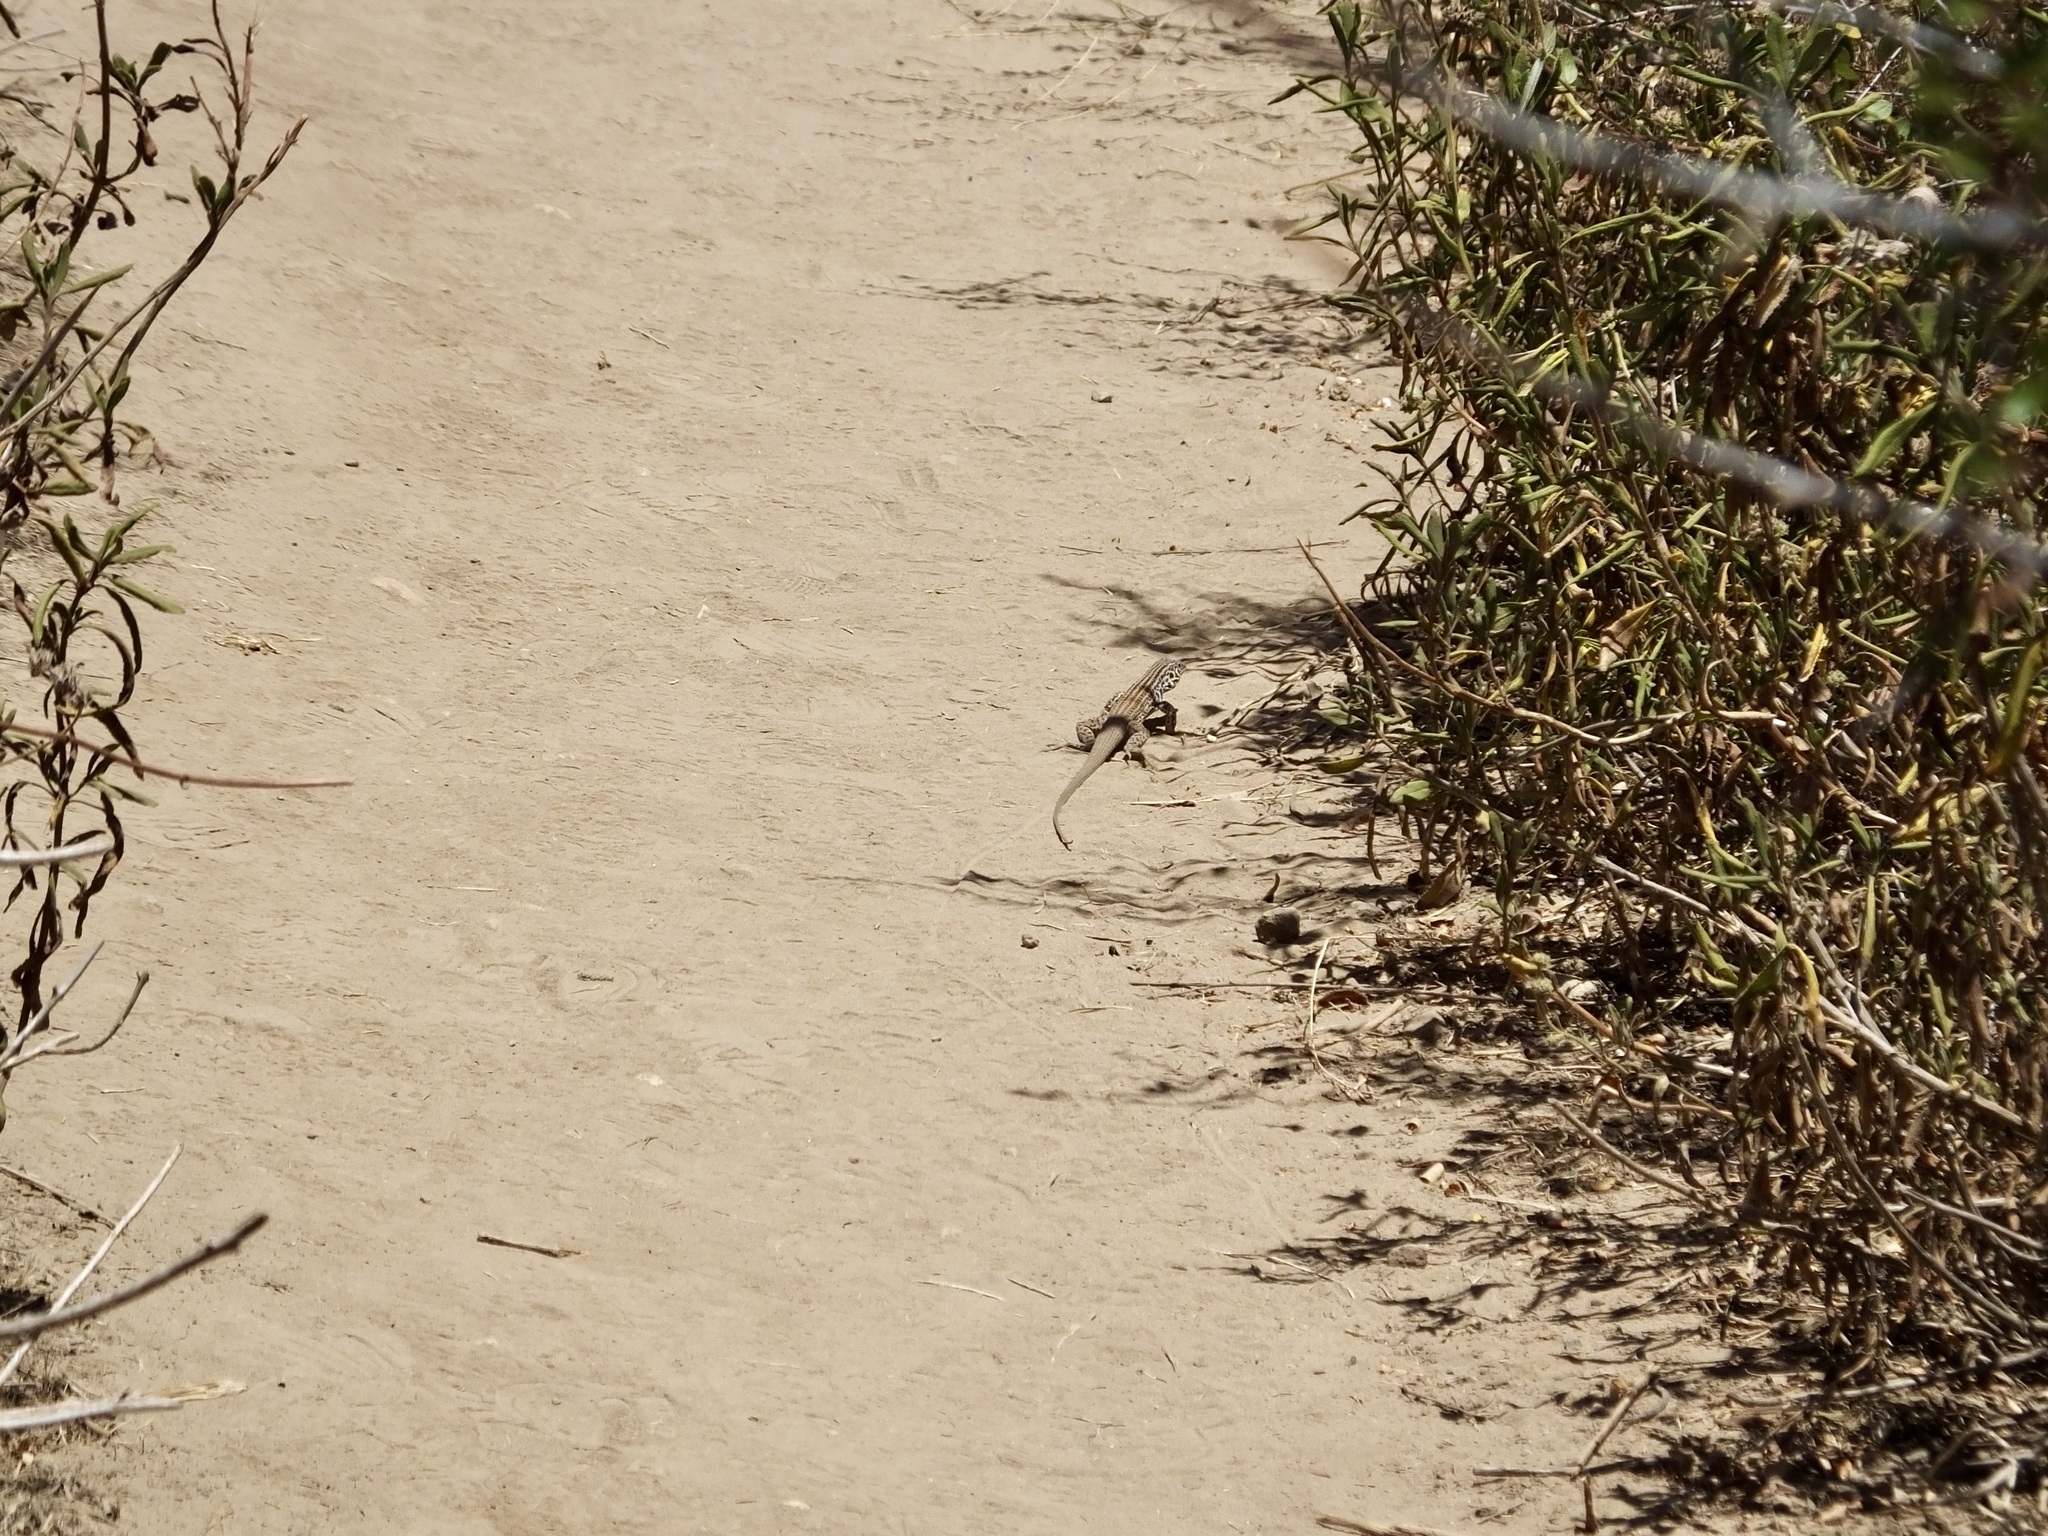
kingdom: Animalia
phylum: Chordata
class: Squamata
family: Teiidae
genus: Aspidoscelis
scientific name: Aspidoscelis tigris
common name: Tiger whiptail
